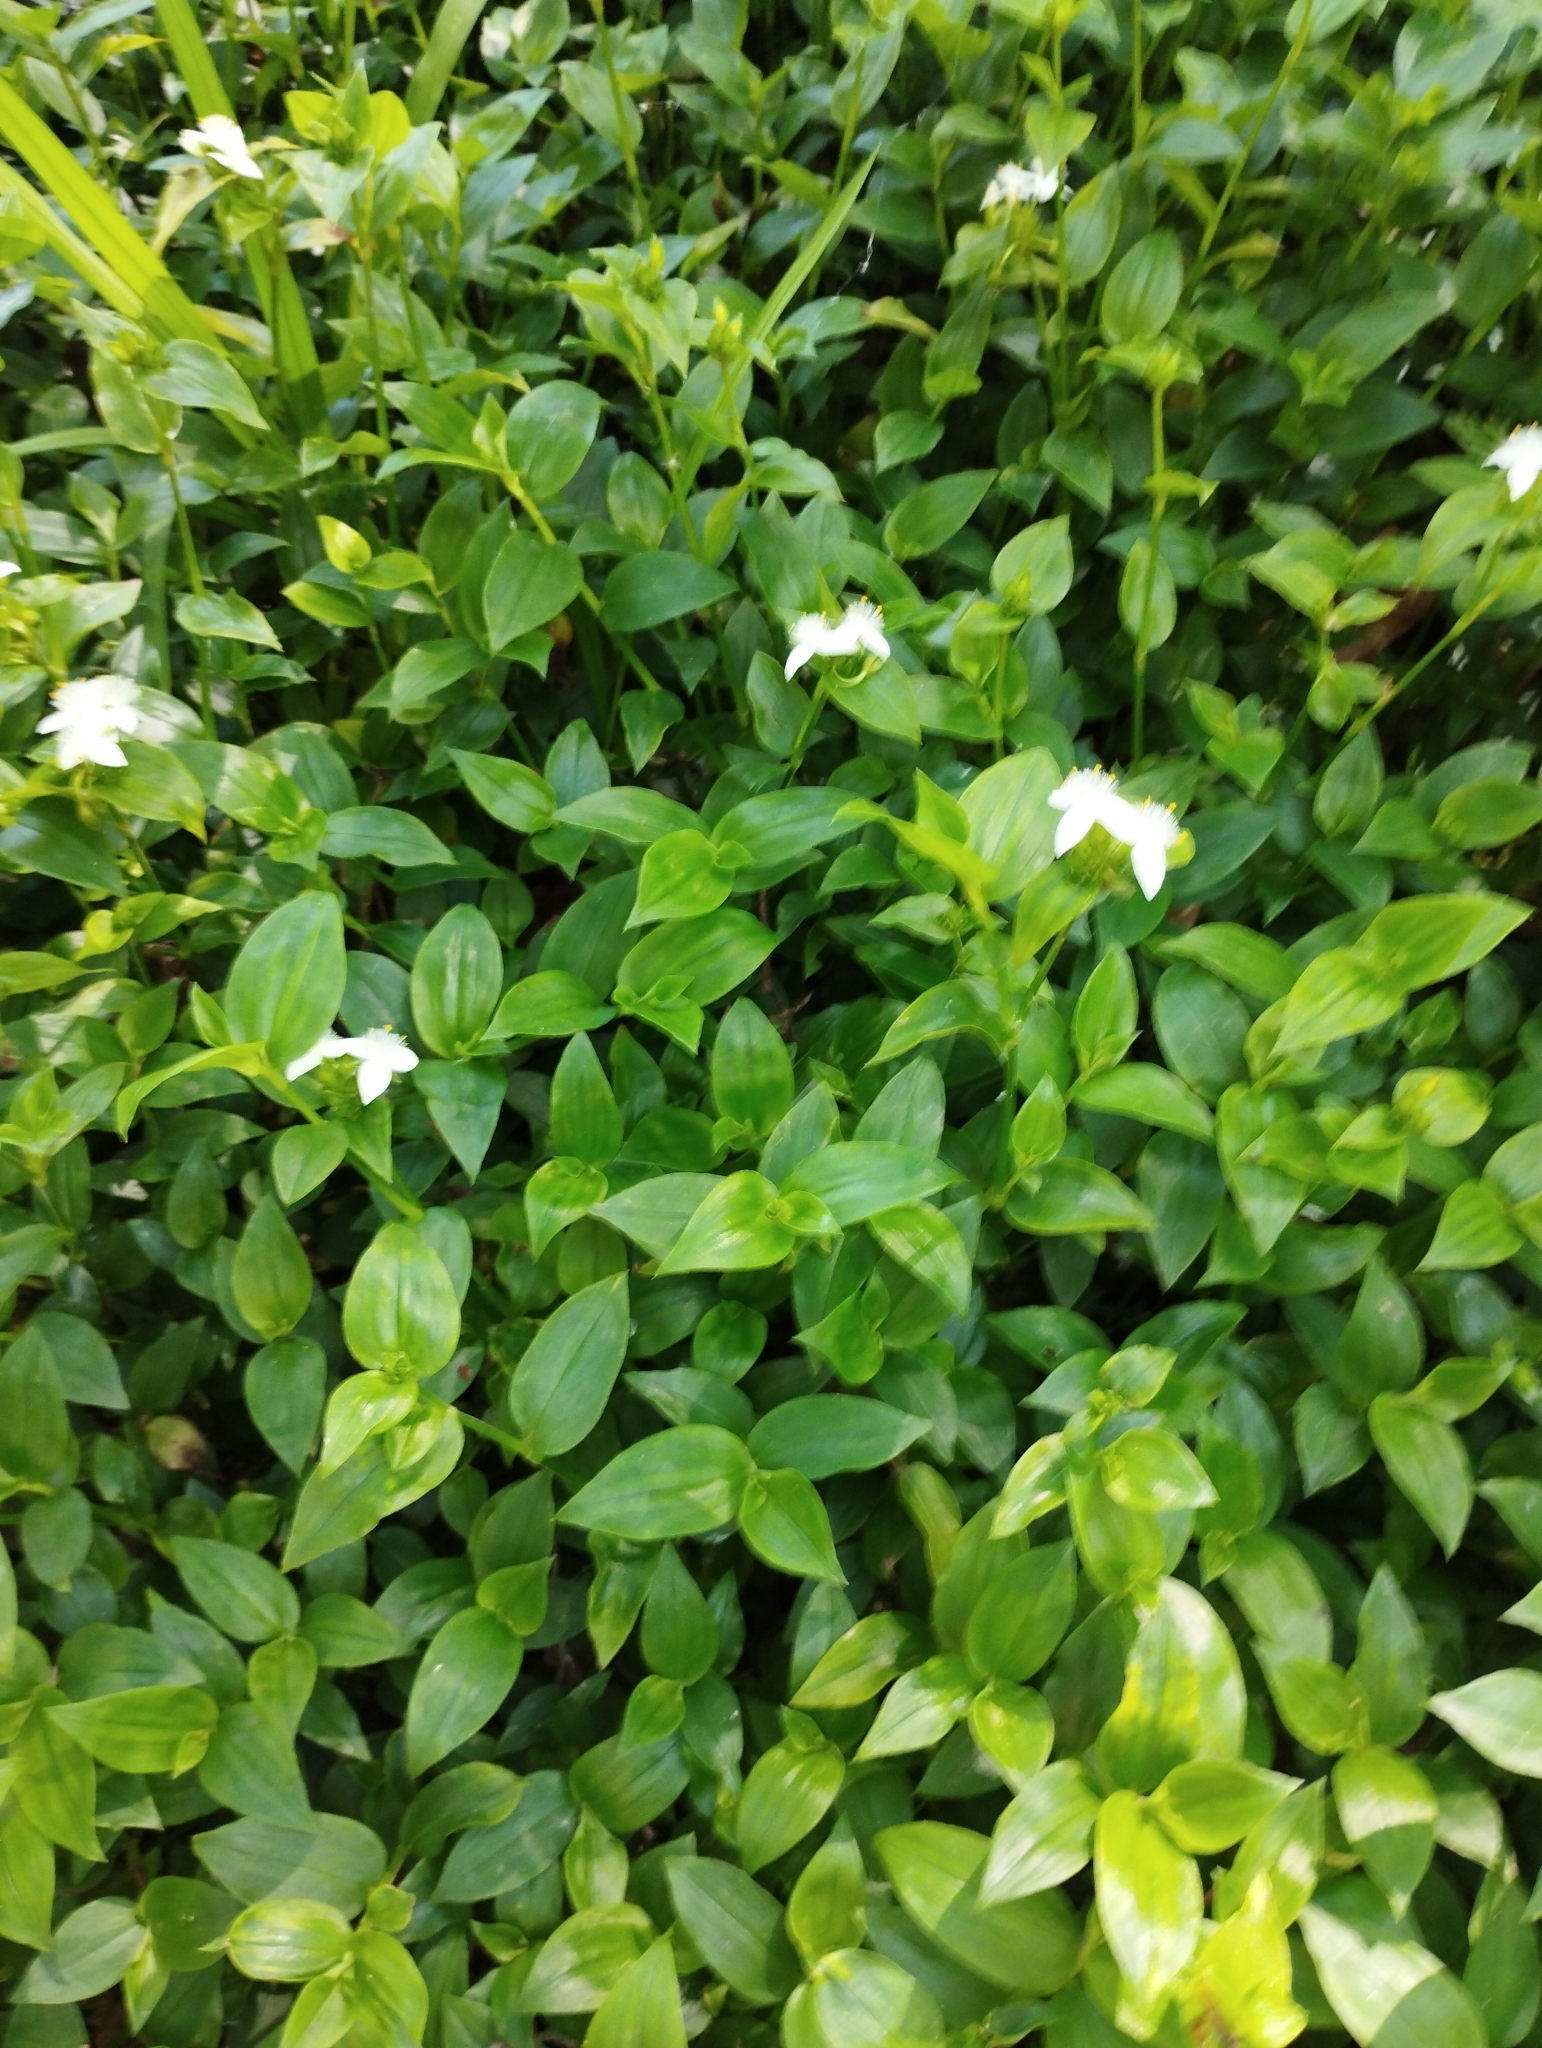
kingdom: Plantae
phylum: Tracheophyta
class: Liliopsida
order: Commelinales
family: Commelinaceae
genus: Tradescantia
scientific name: Tradescantia fluminensis
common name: Wandering-jew
